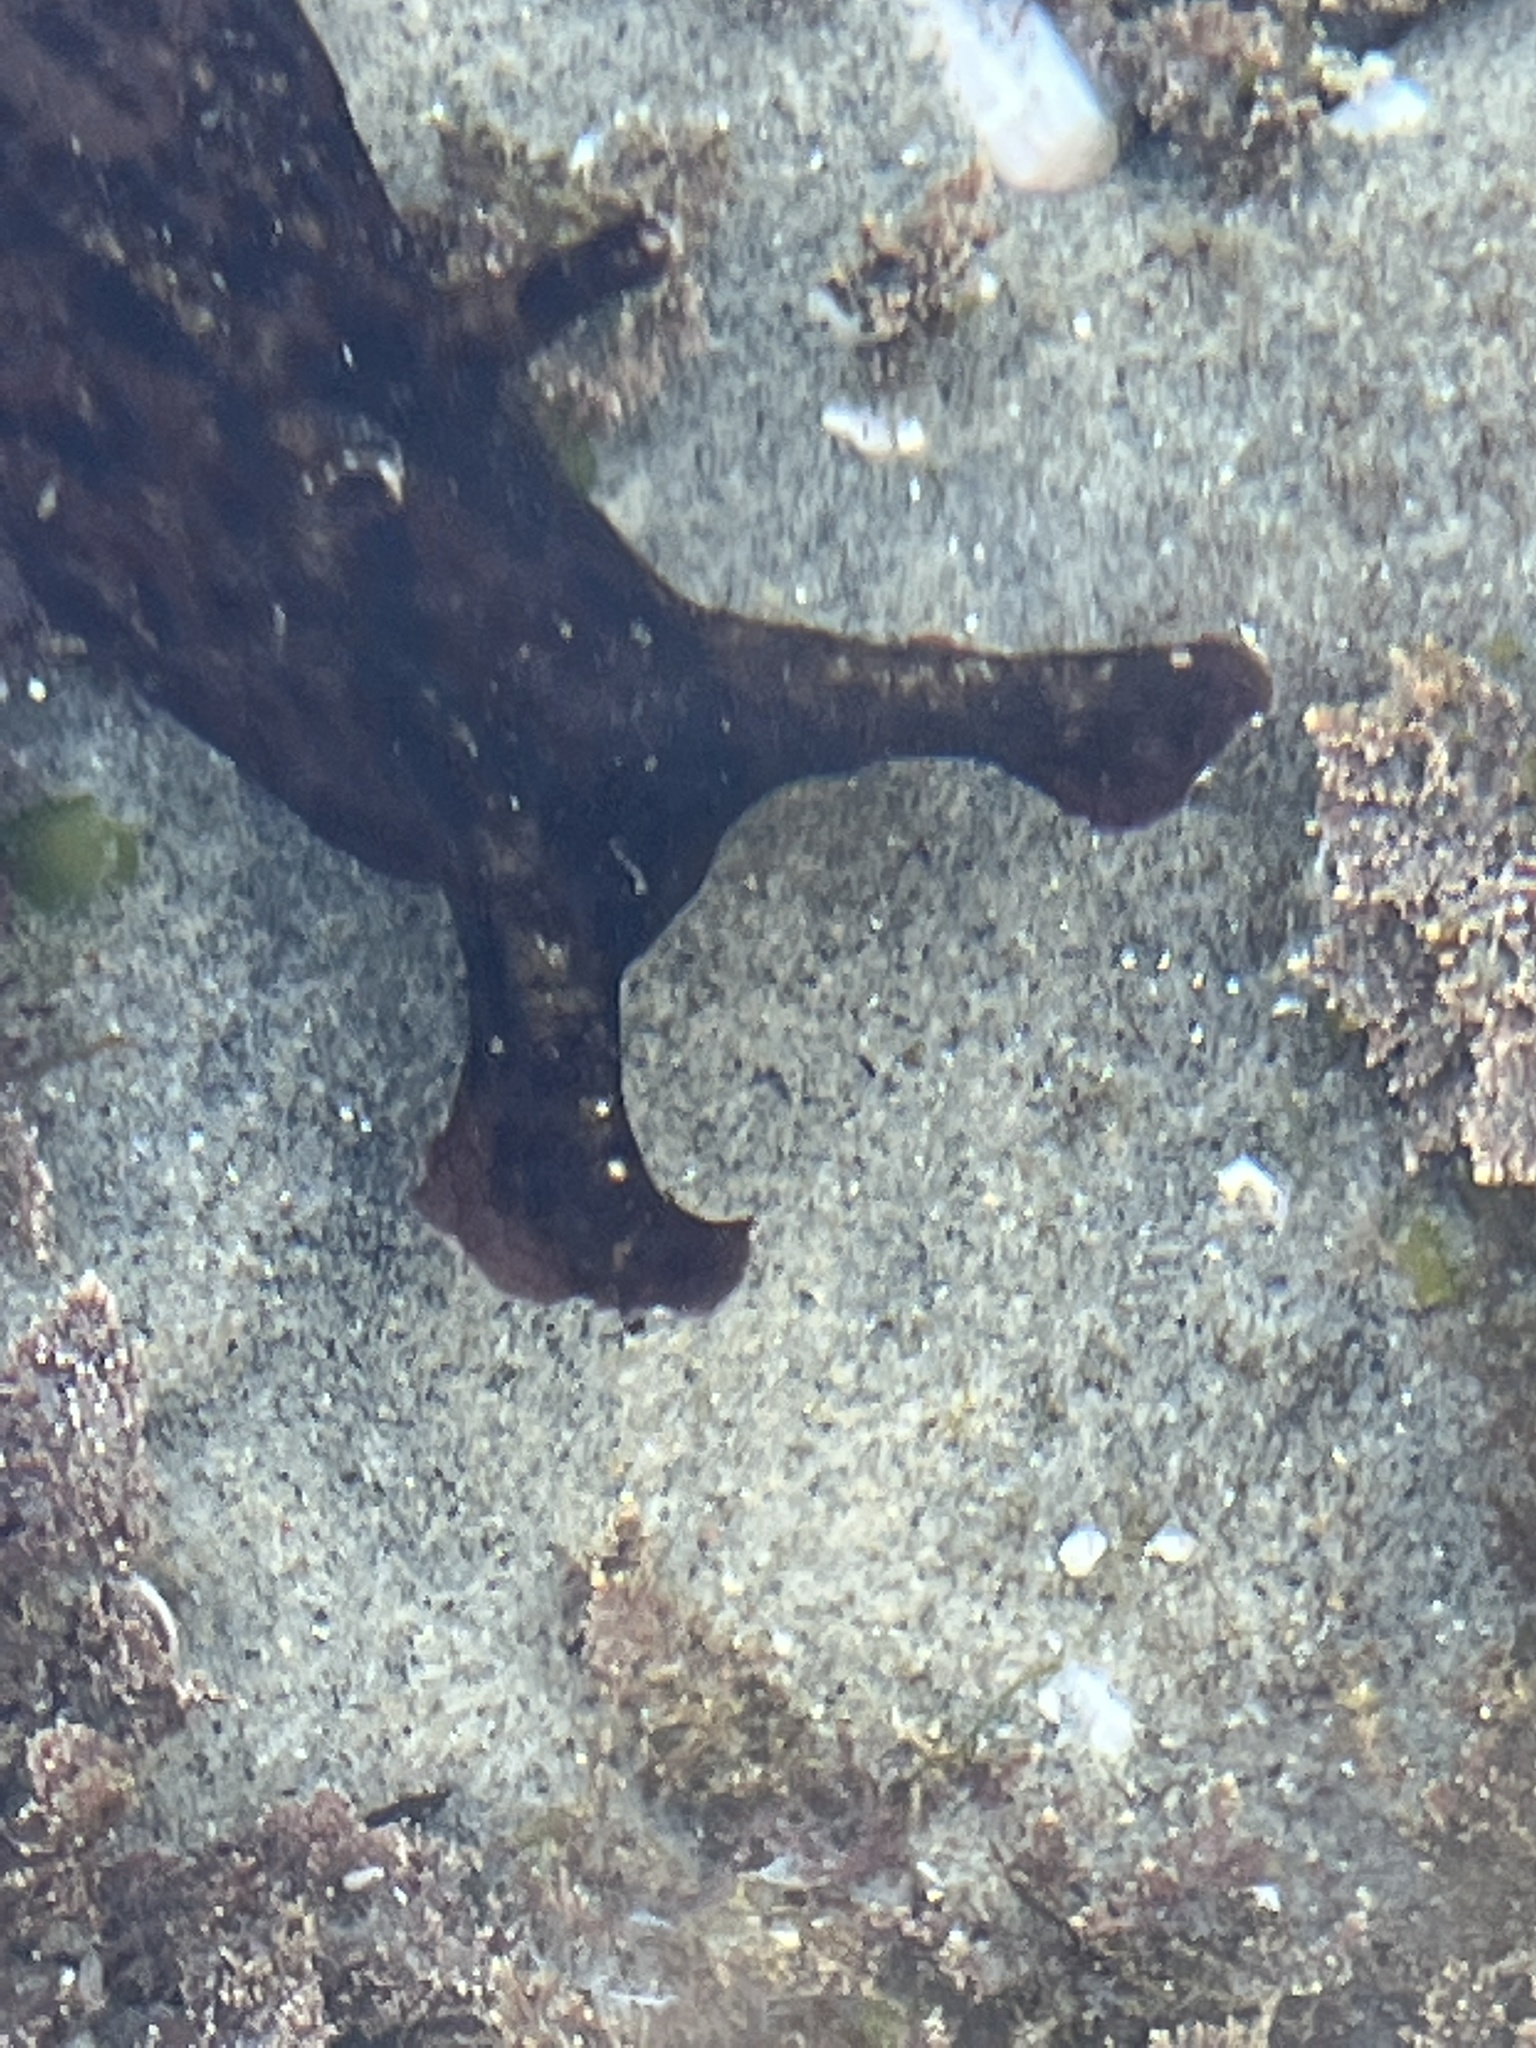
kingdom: Animalia
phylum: Mollusca
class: Gastropoda
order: Aplysiida
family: Aplysiidae
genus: Aplysia
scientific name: Aplysia californica
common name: California seahare
